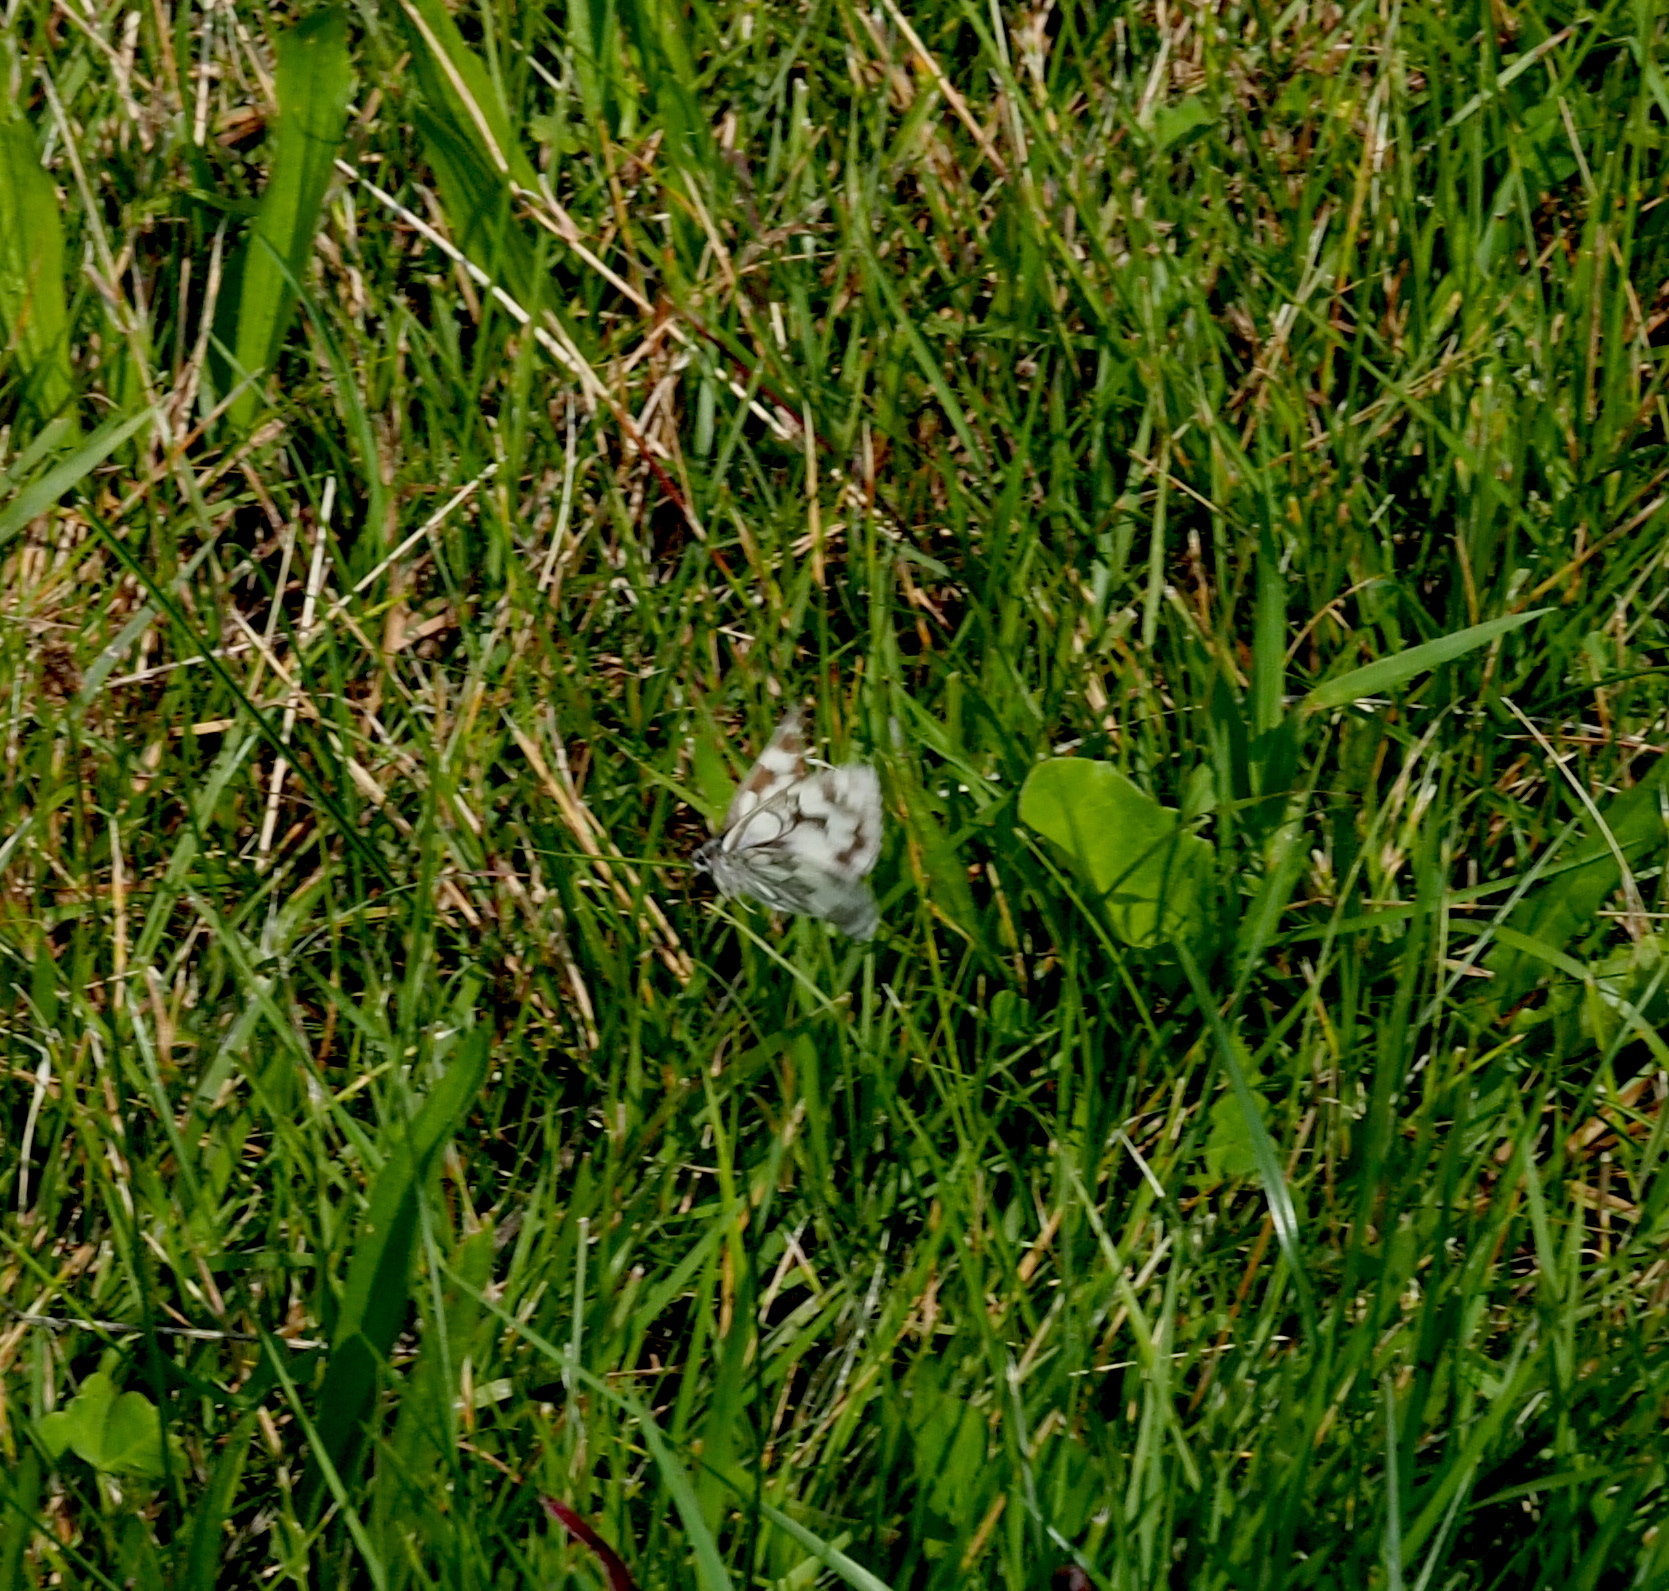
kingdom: Animalia
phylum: Arthropoda
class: Insecta
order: Lepidoptera
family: Nymphalidae
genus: Melanargia
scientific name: Melanargia galathea
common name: Marbled white
